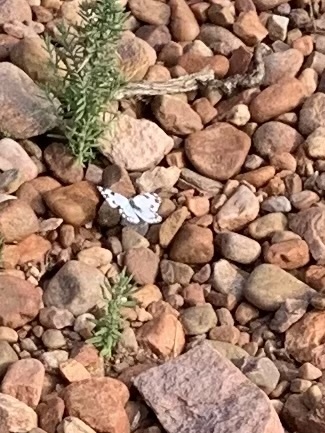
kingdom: Animalia
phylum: Arthropoda
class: Insecta
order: Lepidoptera
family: Pieridae
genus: Pontia
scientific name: Pontia helice
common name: Meadow white
